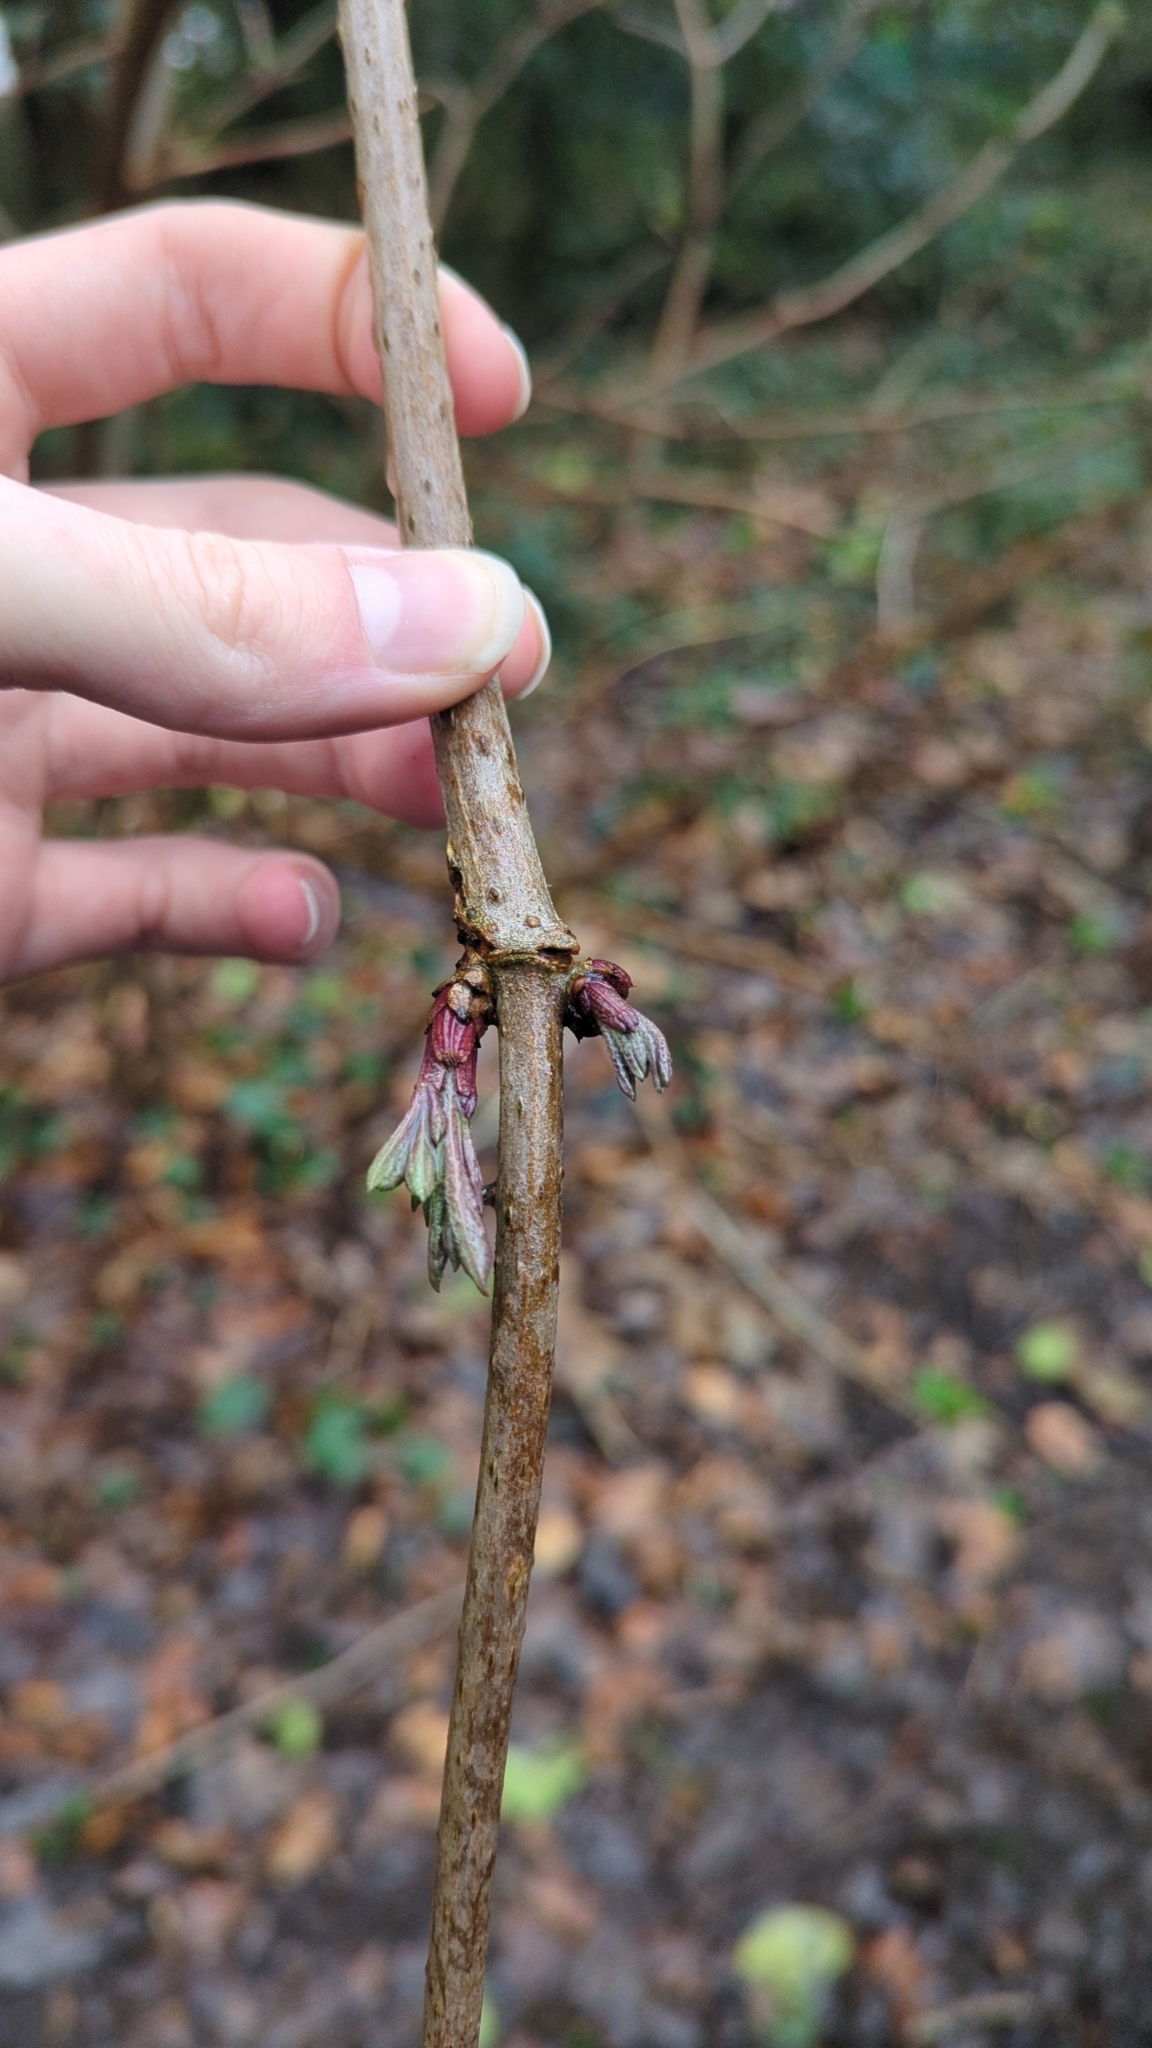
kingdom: Plantae
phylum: Tracheophyta
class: Magnoliopsida
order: Dipsacales
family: Viburnaceae
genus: Sambucus
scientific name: Sambucus nigra
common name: Elder
